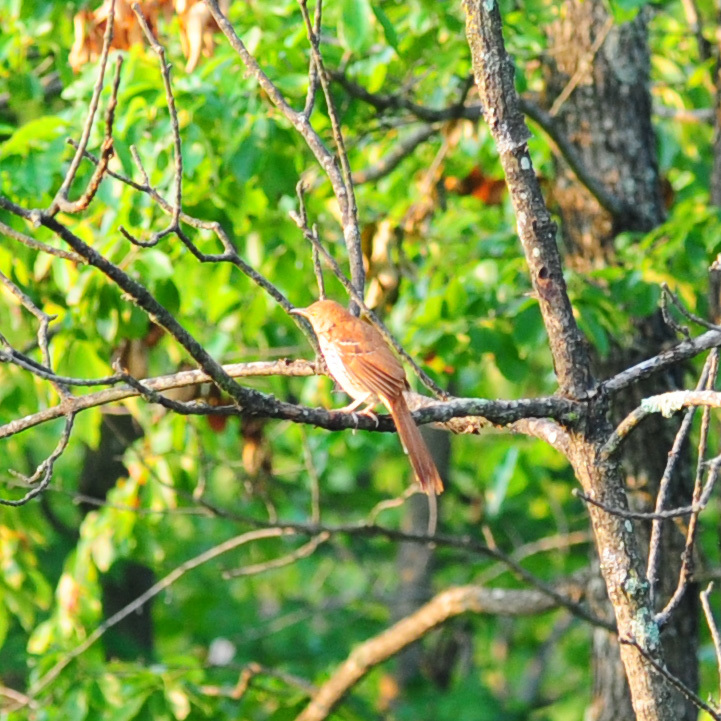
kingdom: Animalia
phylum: Chordata
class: Aves
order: Passeriformes
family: Mimidae
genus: Toxostoma
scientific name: Toxostoma rufum
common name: Brown thrasher
